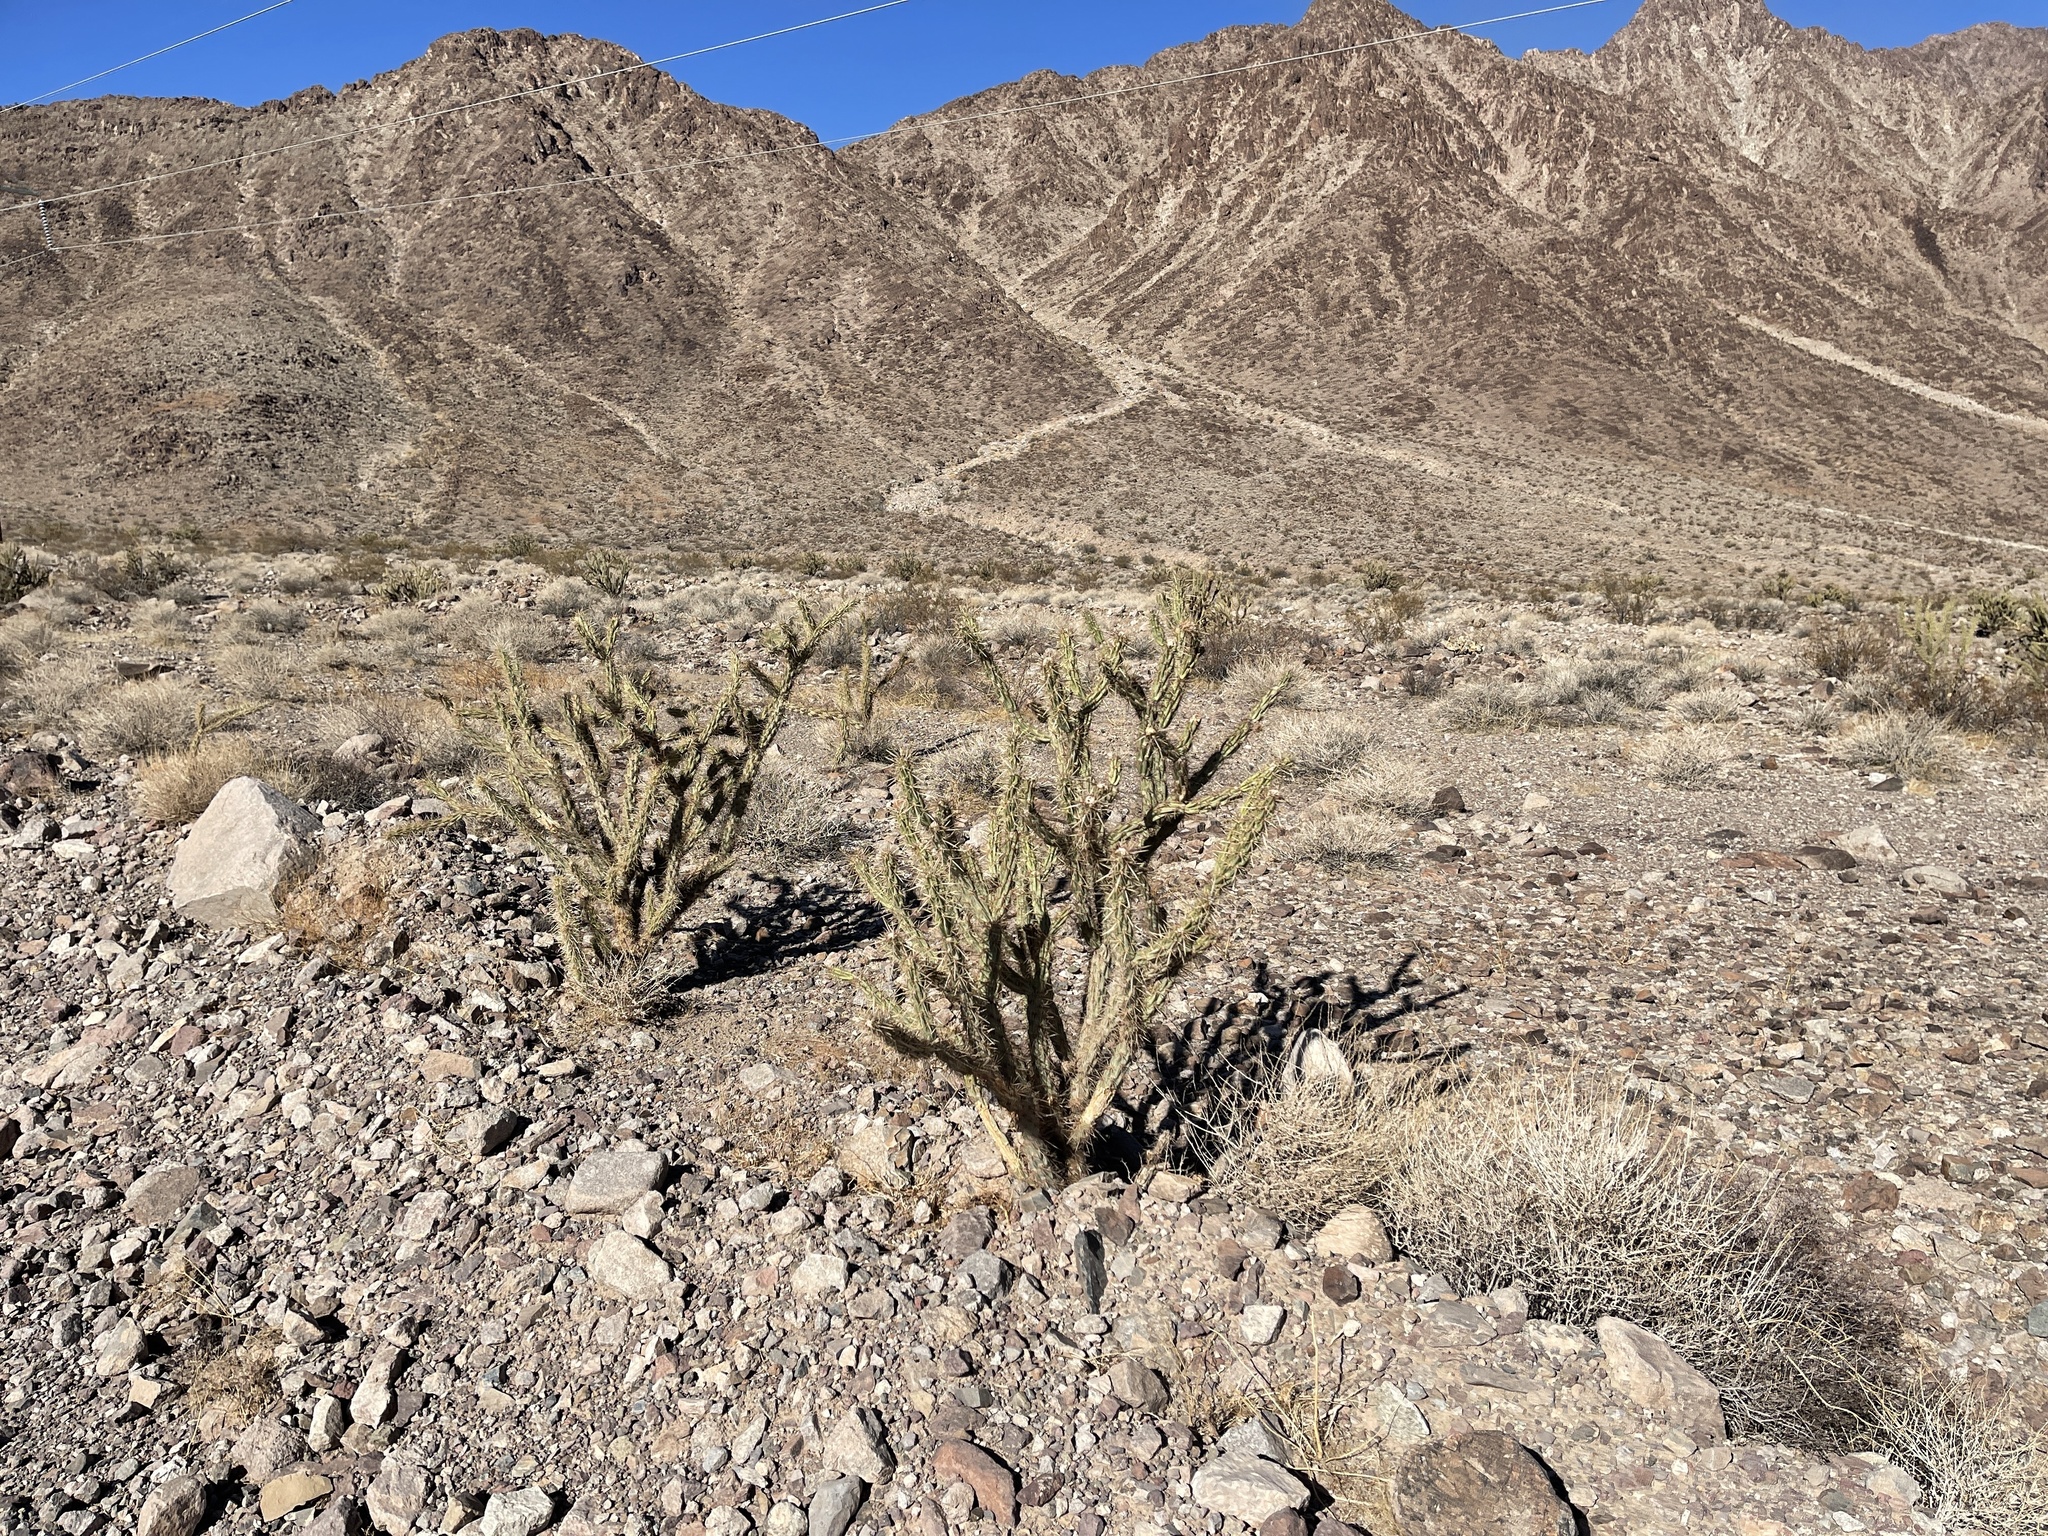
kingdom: Plantae
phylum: Tracheophyta
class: Magnoliopsida
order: Caryophyllales
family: Cactaceae
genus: Cylindropuntia
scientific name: Cylindropuntia acanthocarpa
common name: Buckhorn cholla
